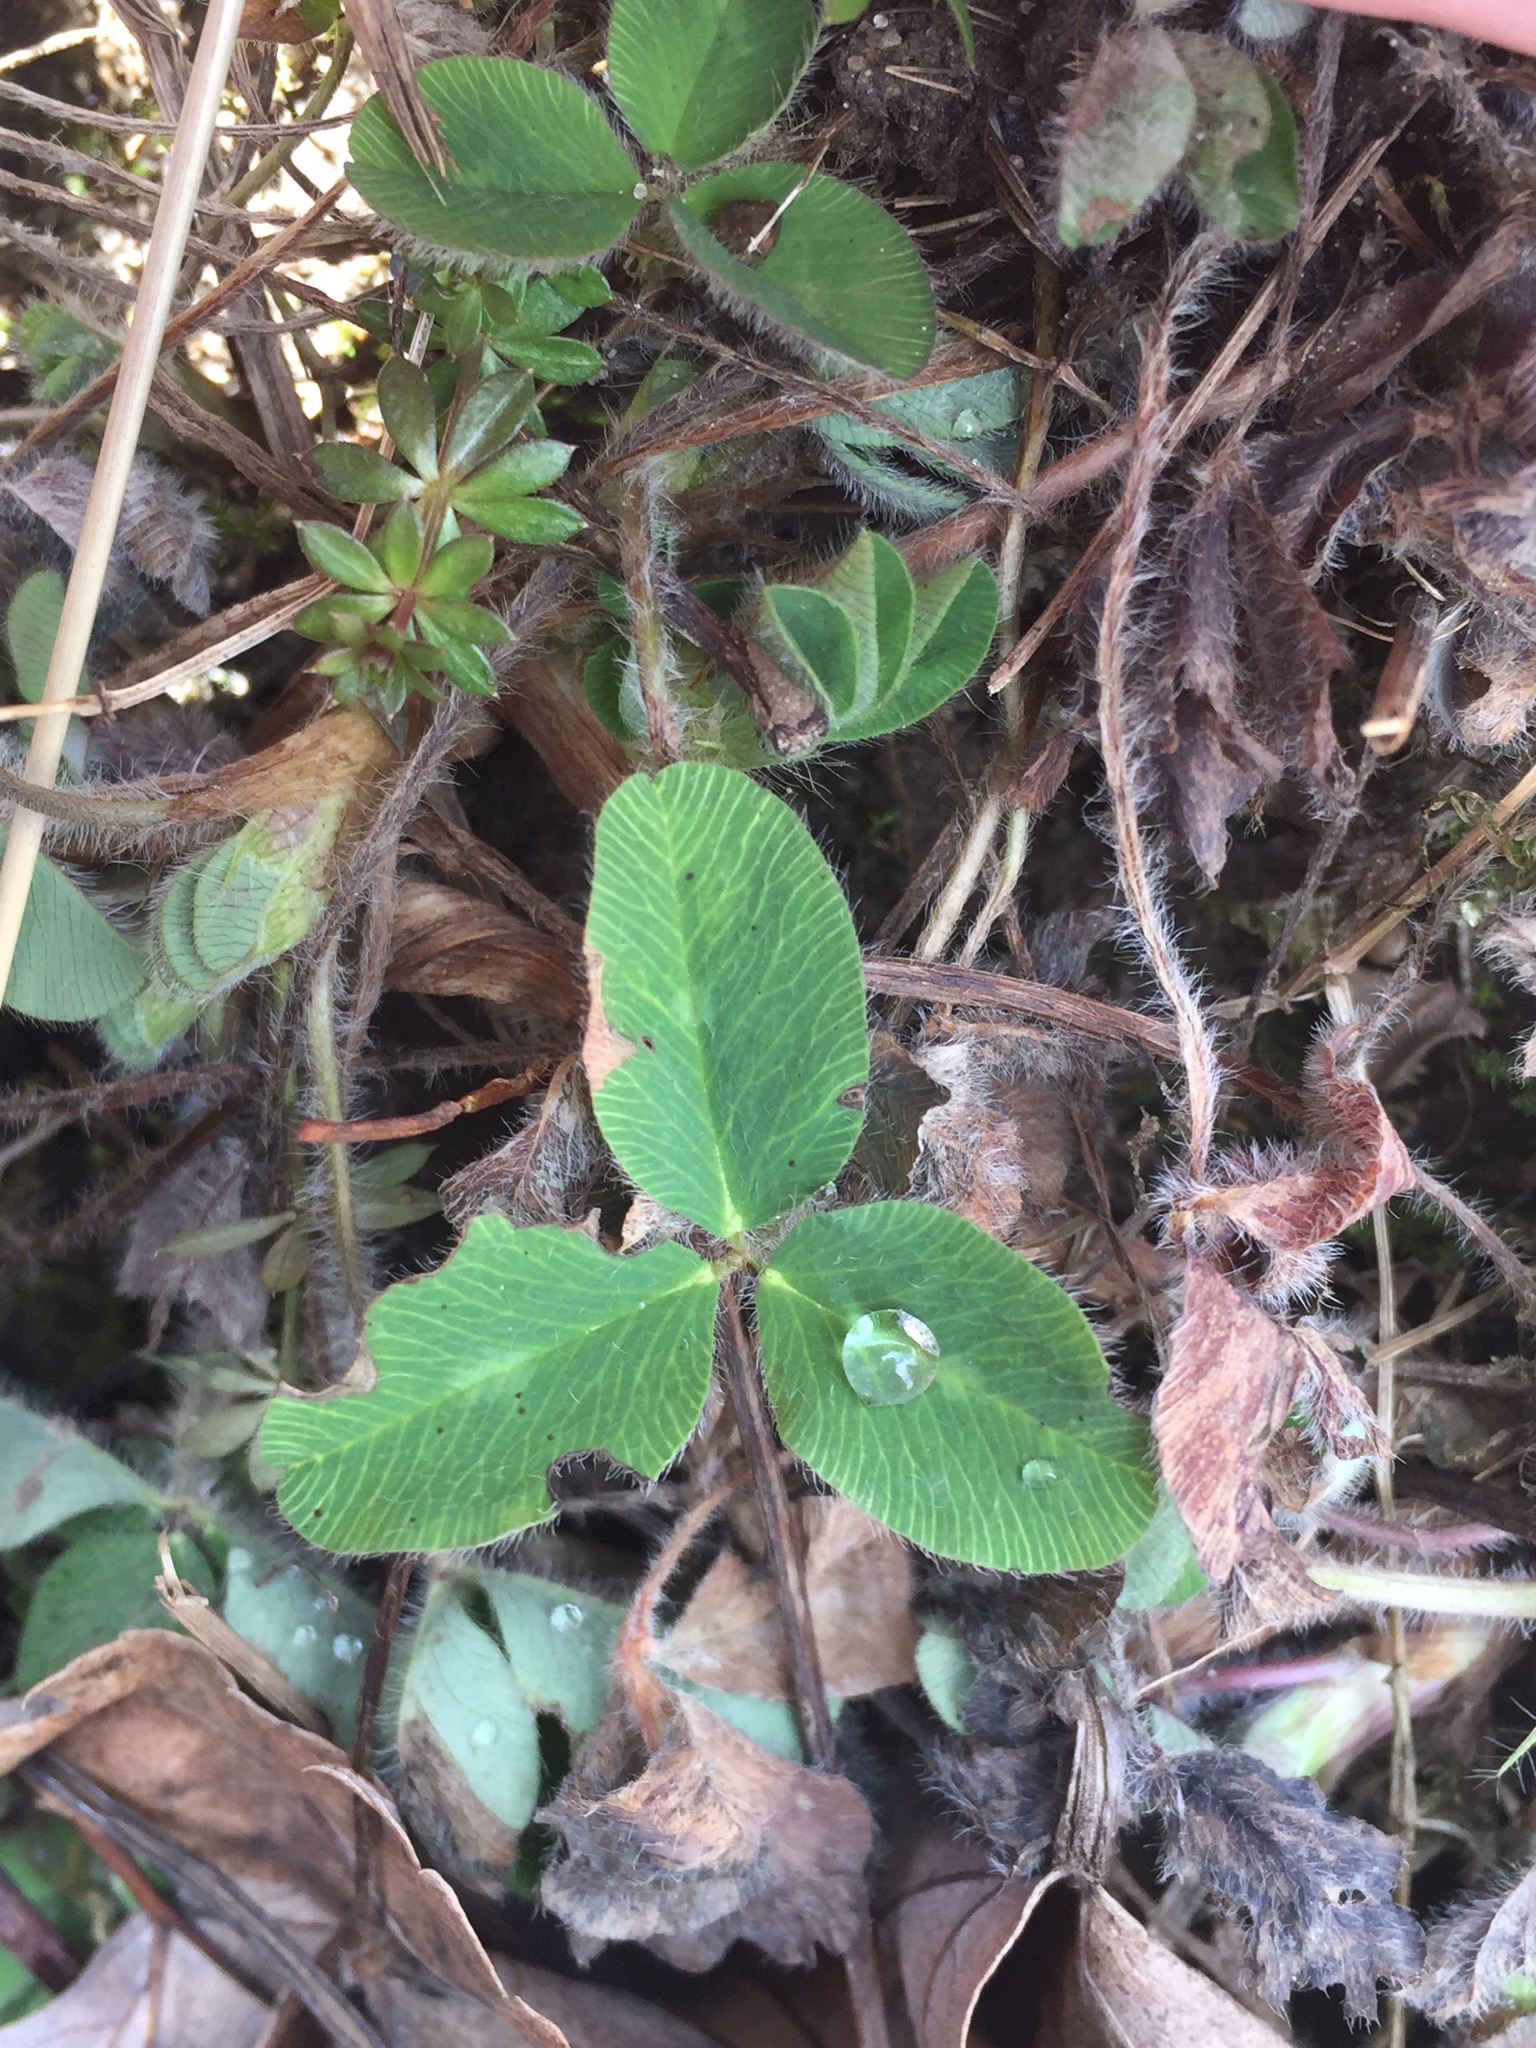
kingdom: Plantae
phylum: Tracheophyta
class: Magnoliopsida
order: Fabales
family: Fabaceae
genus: Trifolium
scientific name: Trifolium pratense
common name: Red clover
